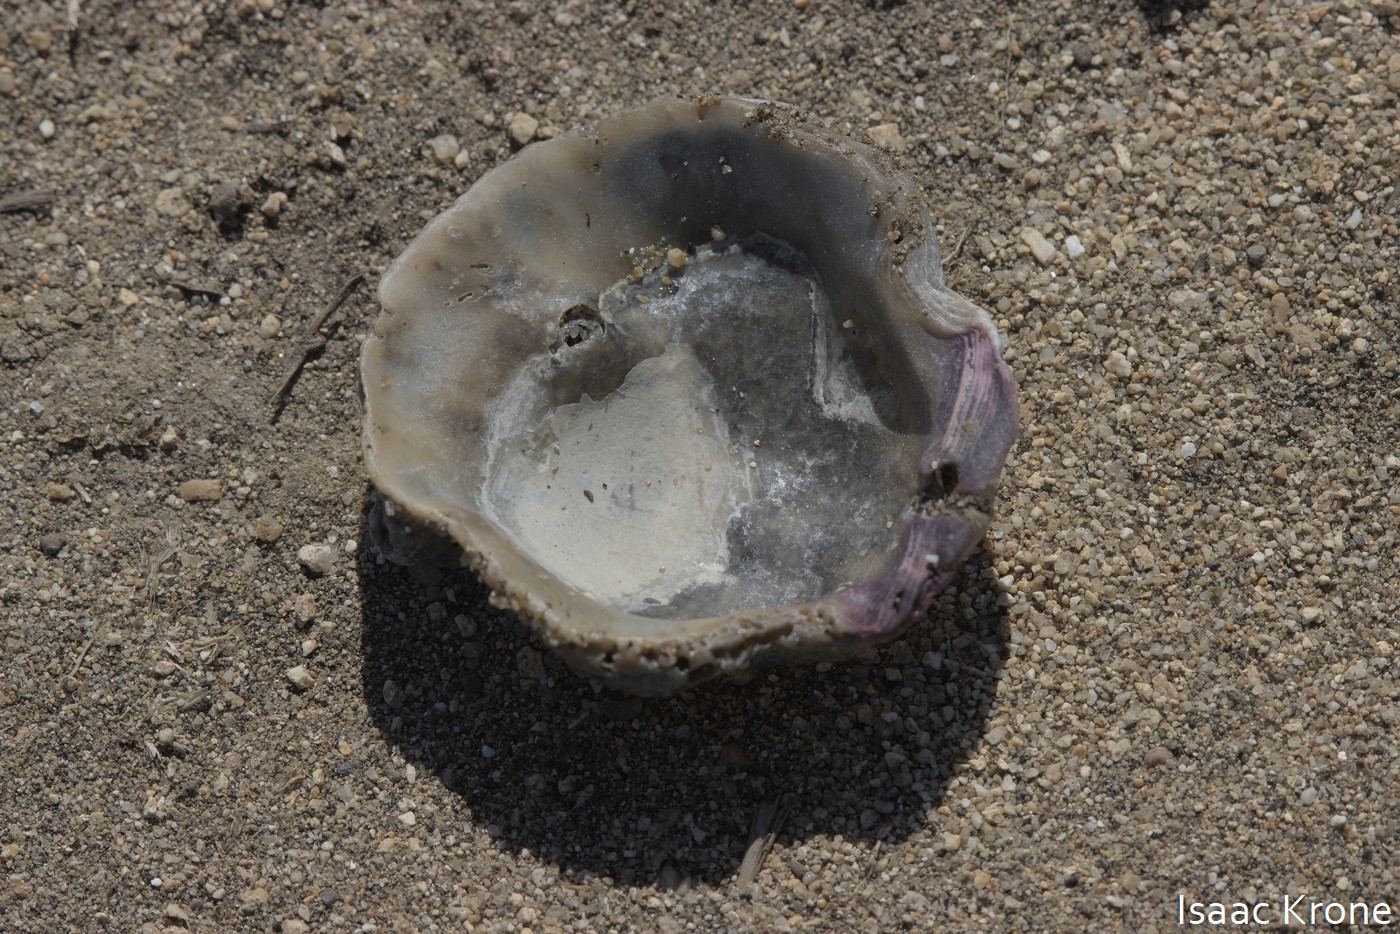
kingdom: Animalia
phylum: Mollusca
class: Bivalvia
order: Pectinida
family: Pectinidae
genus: Crassadoma
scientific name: Crassadoma gigantea
